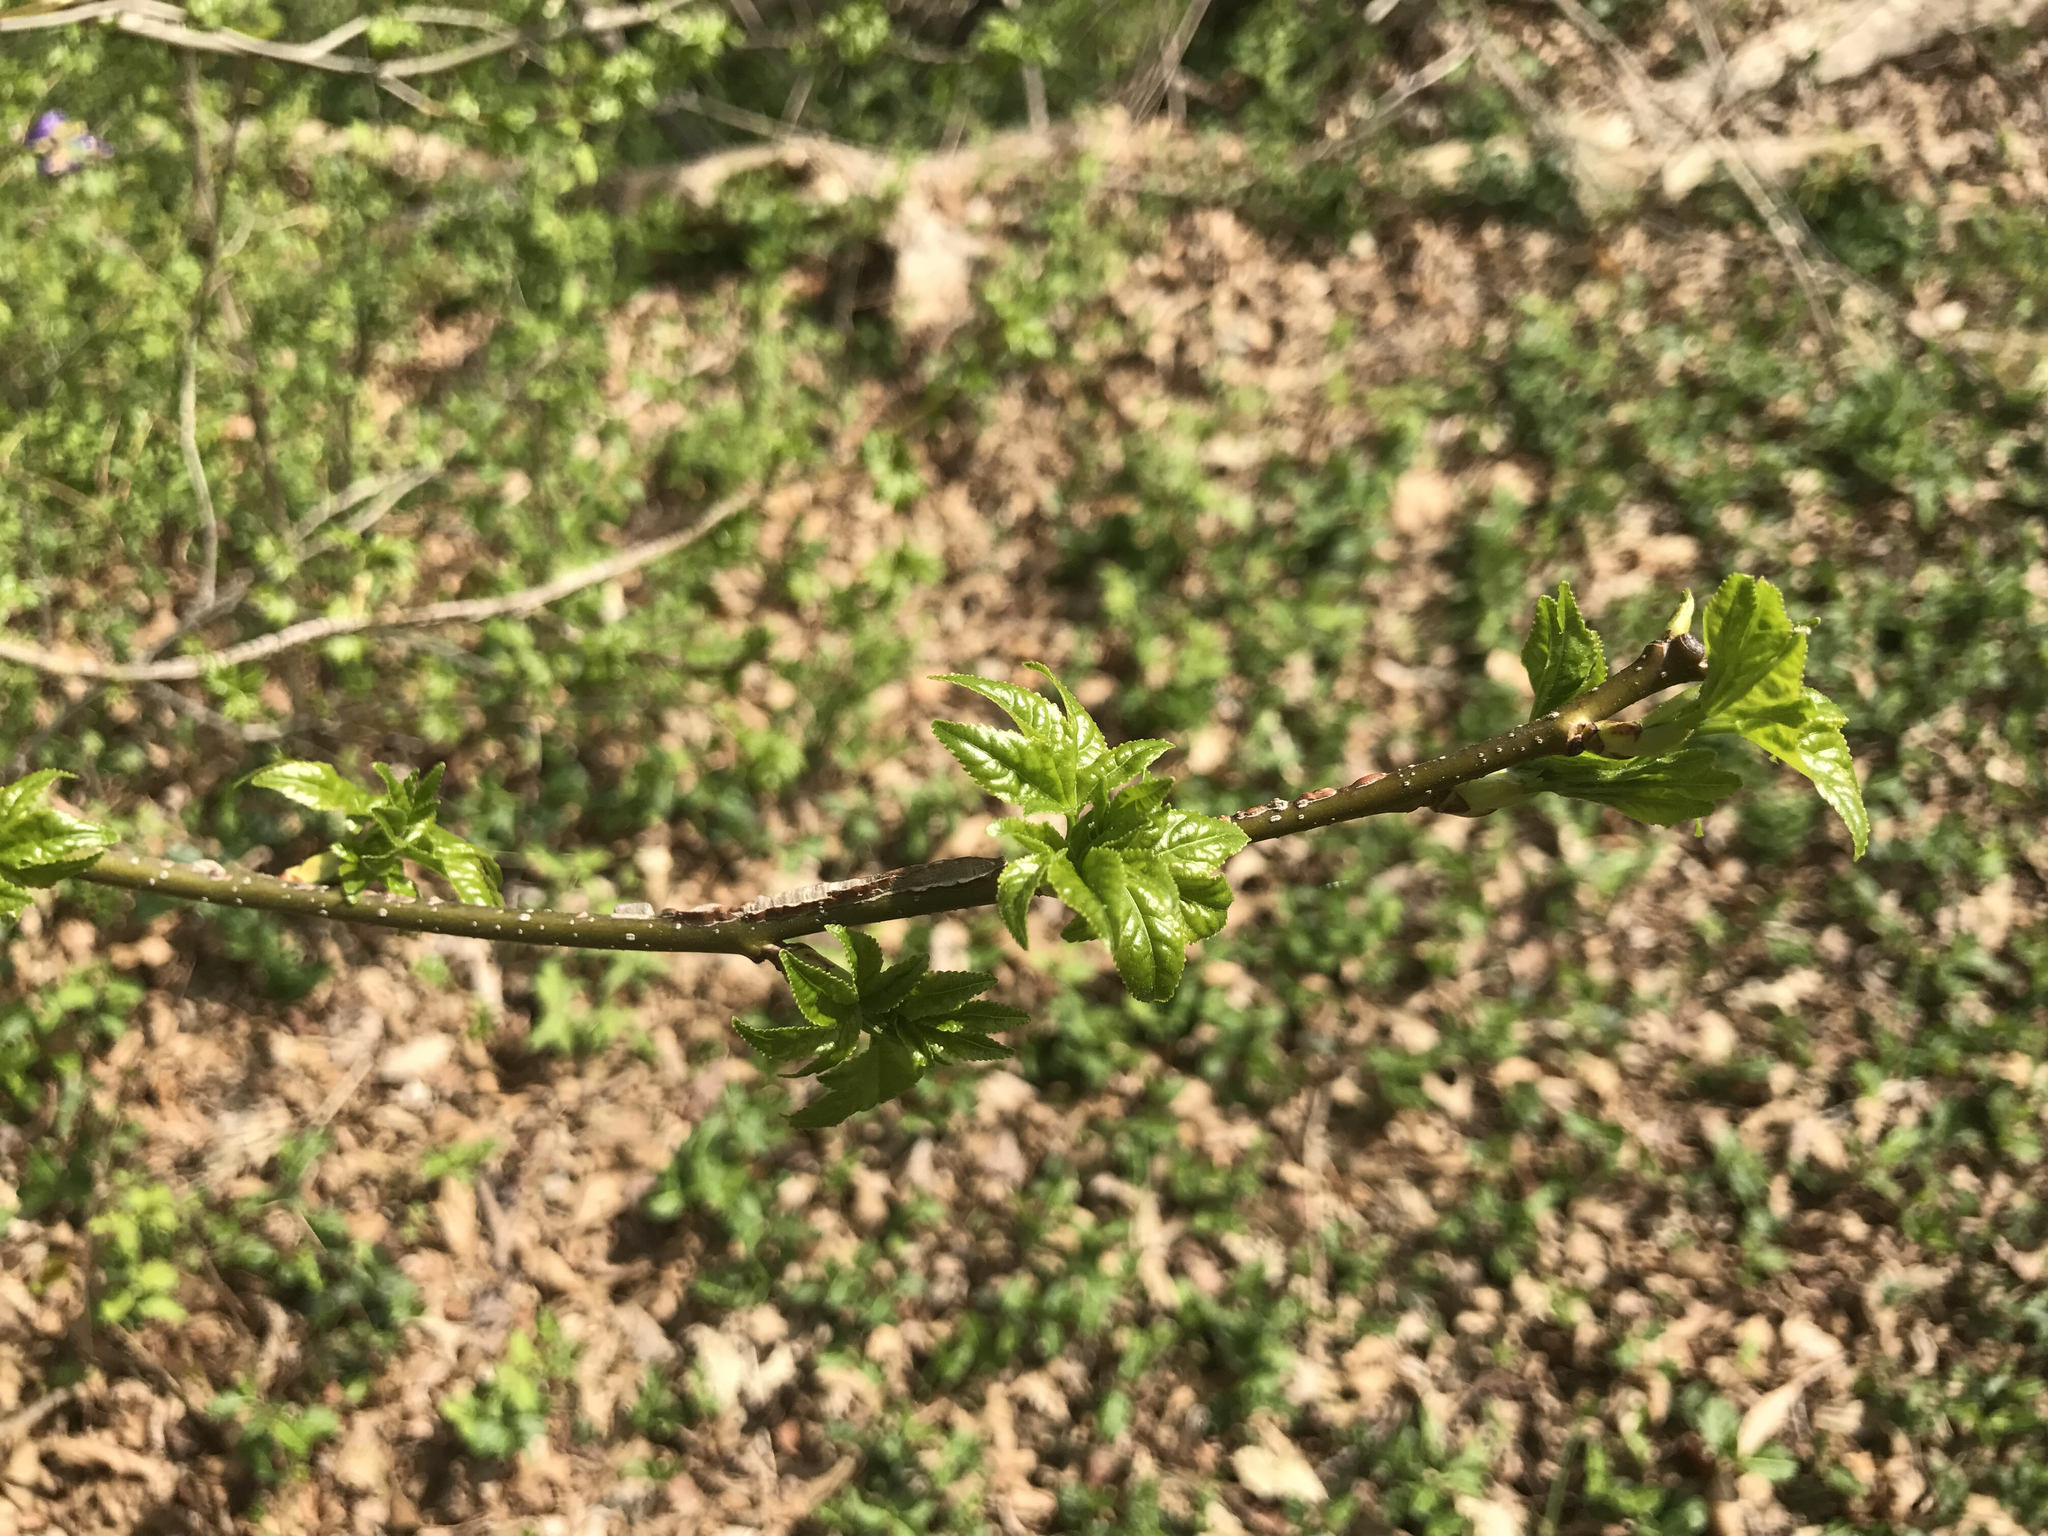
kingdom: Plantae
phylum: Tracheophyta
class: Magnoliopsida
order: Saxifragales
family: Altingiaceae
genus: Liquidambar
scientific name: Liquidambar styraciflua
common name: Sweet gum
